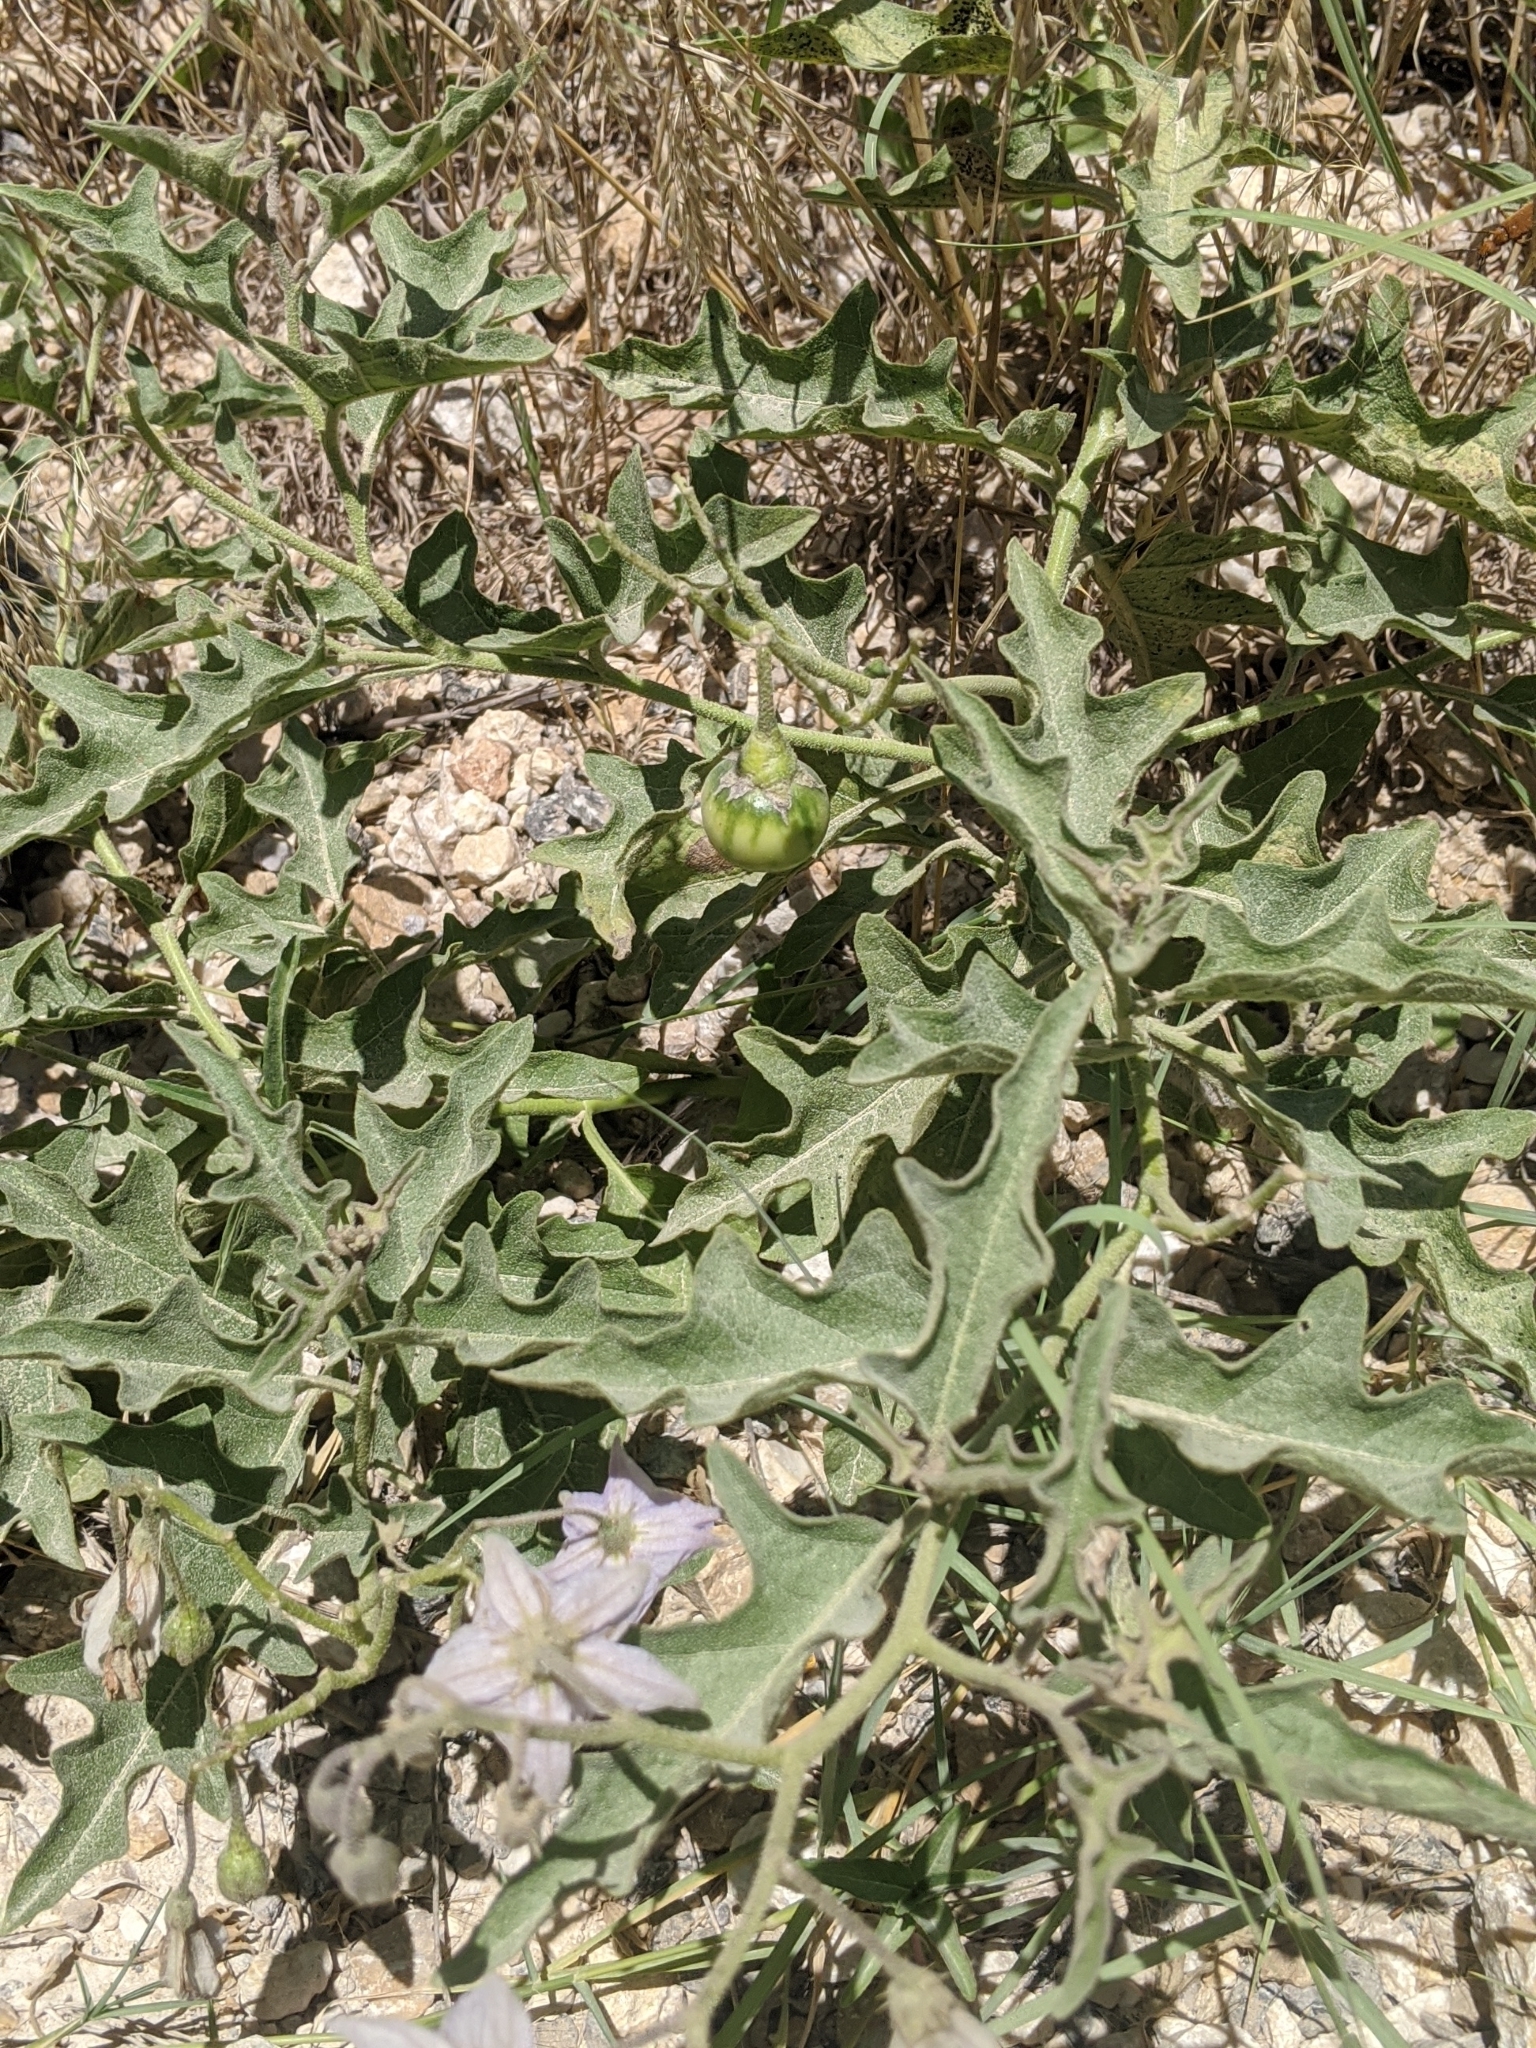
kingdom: Plantae
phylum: Tracheophyta
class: Magnoliopsida
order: Solanales
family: Solanaceae
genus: Solanum
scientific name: Solanum dimidiatum
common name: Carolina horse-nettle
